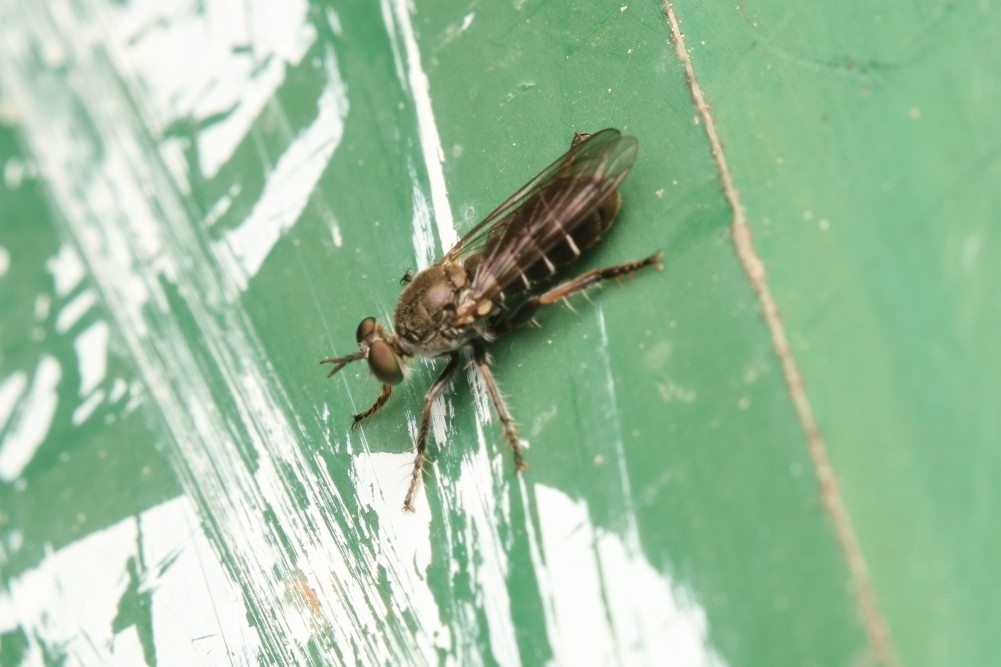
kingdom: Animalia
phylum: Arthropoda
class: Insecta
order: Diptera
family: Asilidae
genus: Atomosia
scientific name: Atomosia puella
